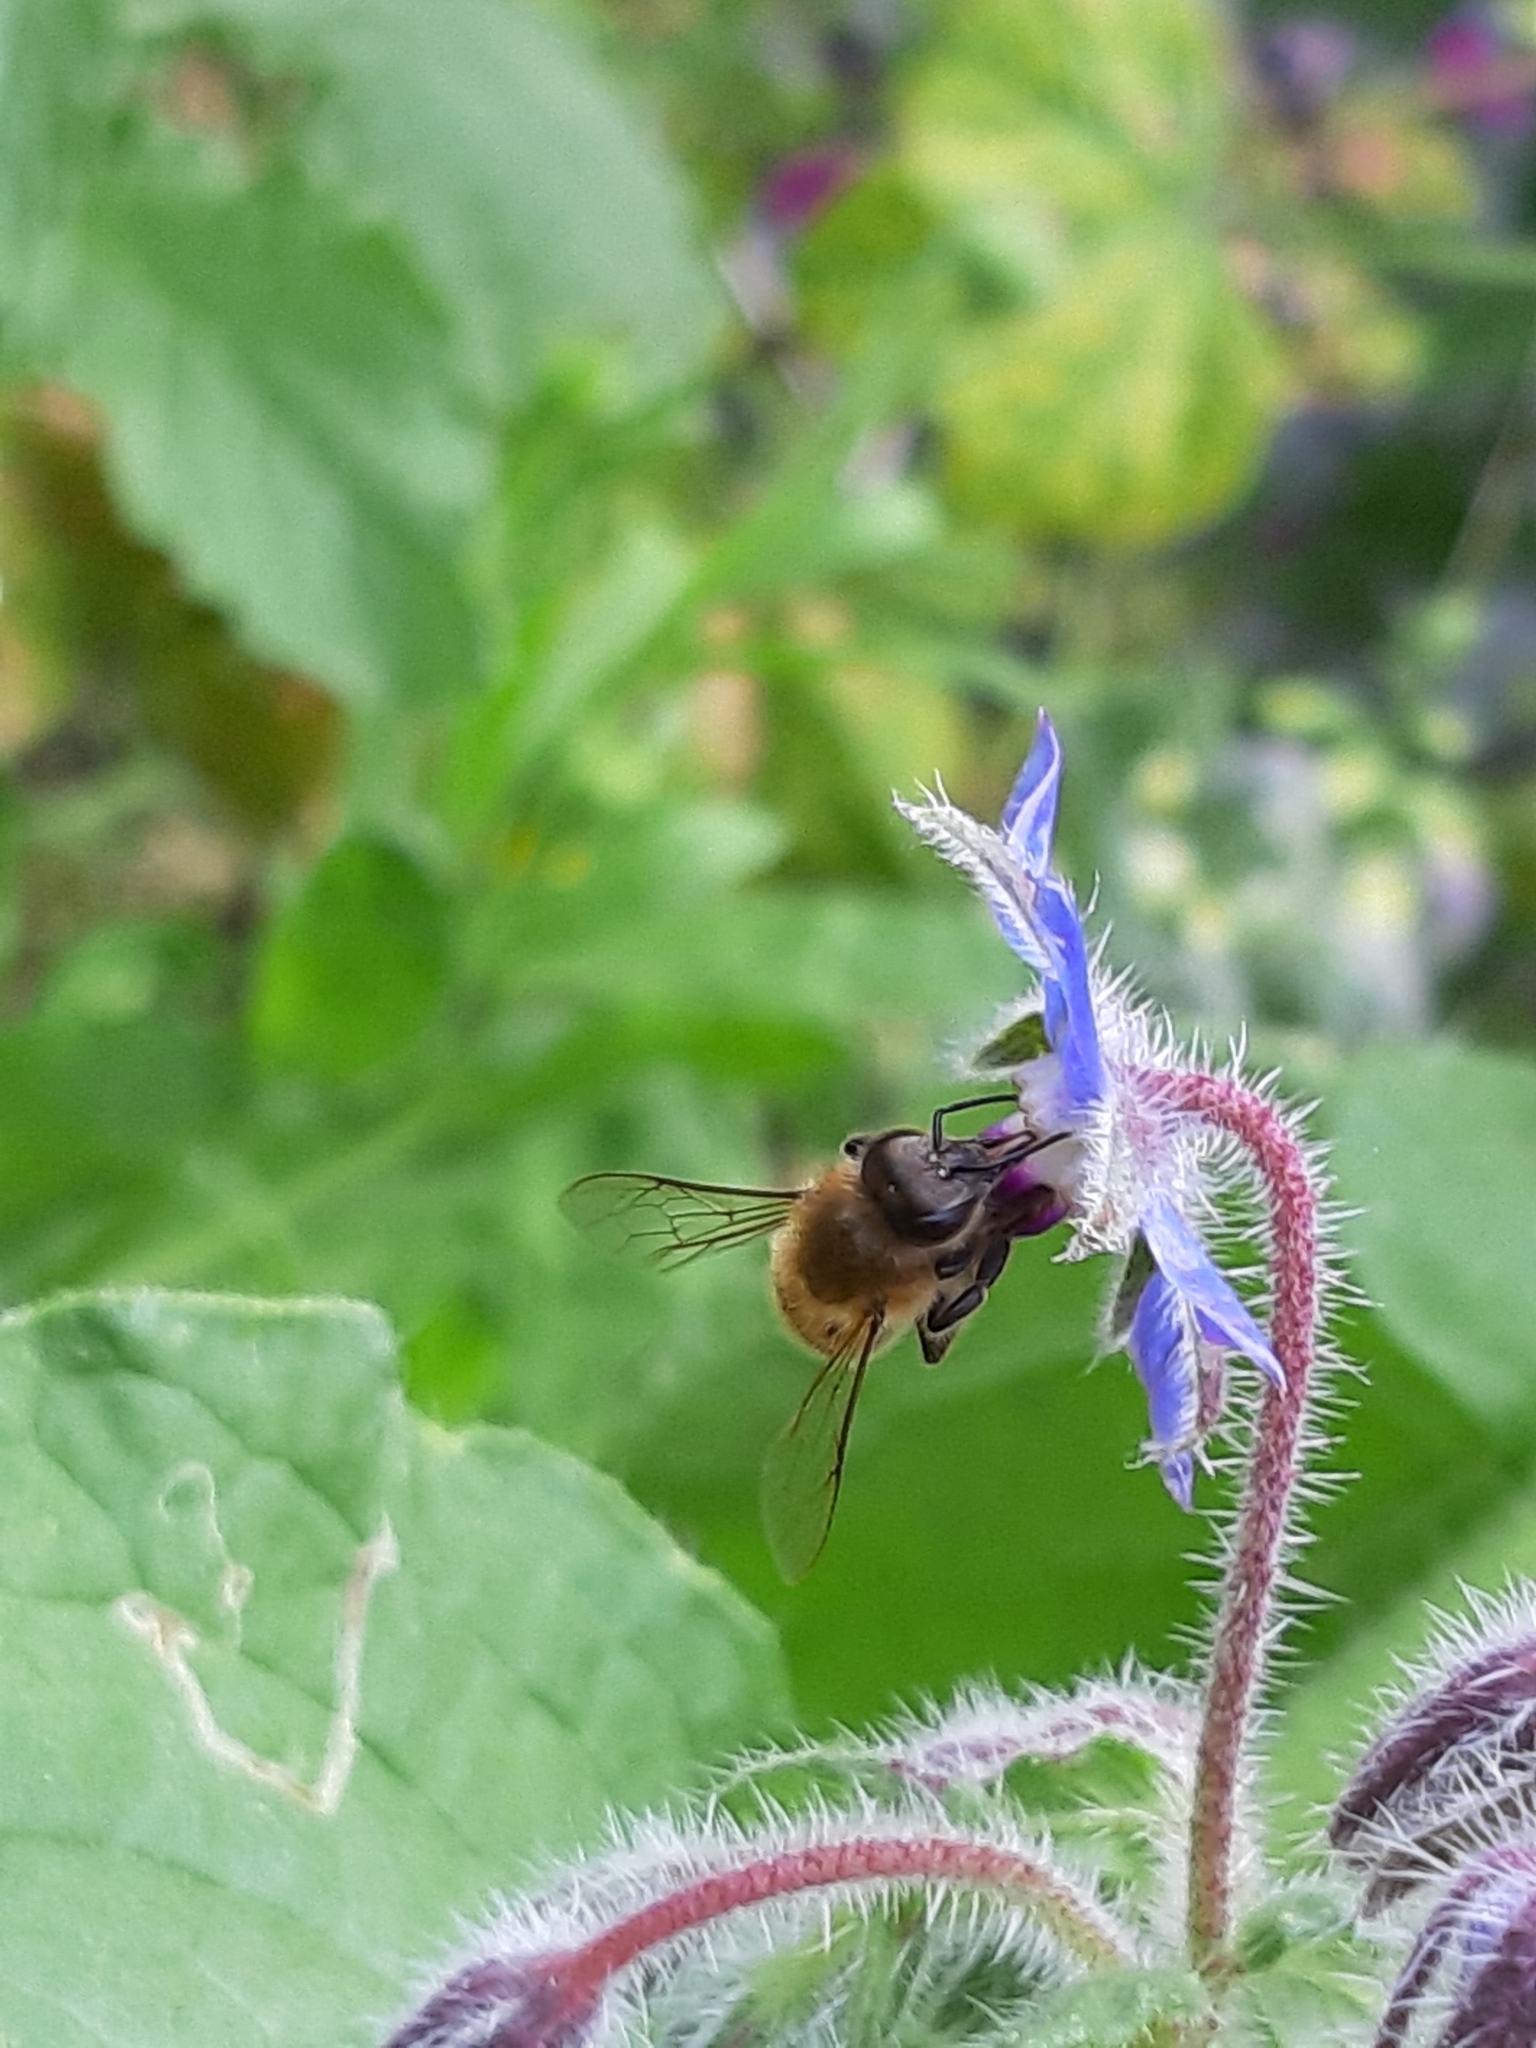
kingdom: Animalia
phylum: Arthropoda
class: Insecta
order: Hymenoptera
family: Apidae
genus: Apis
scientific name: Apis mellifera
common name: Honey bee
